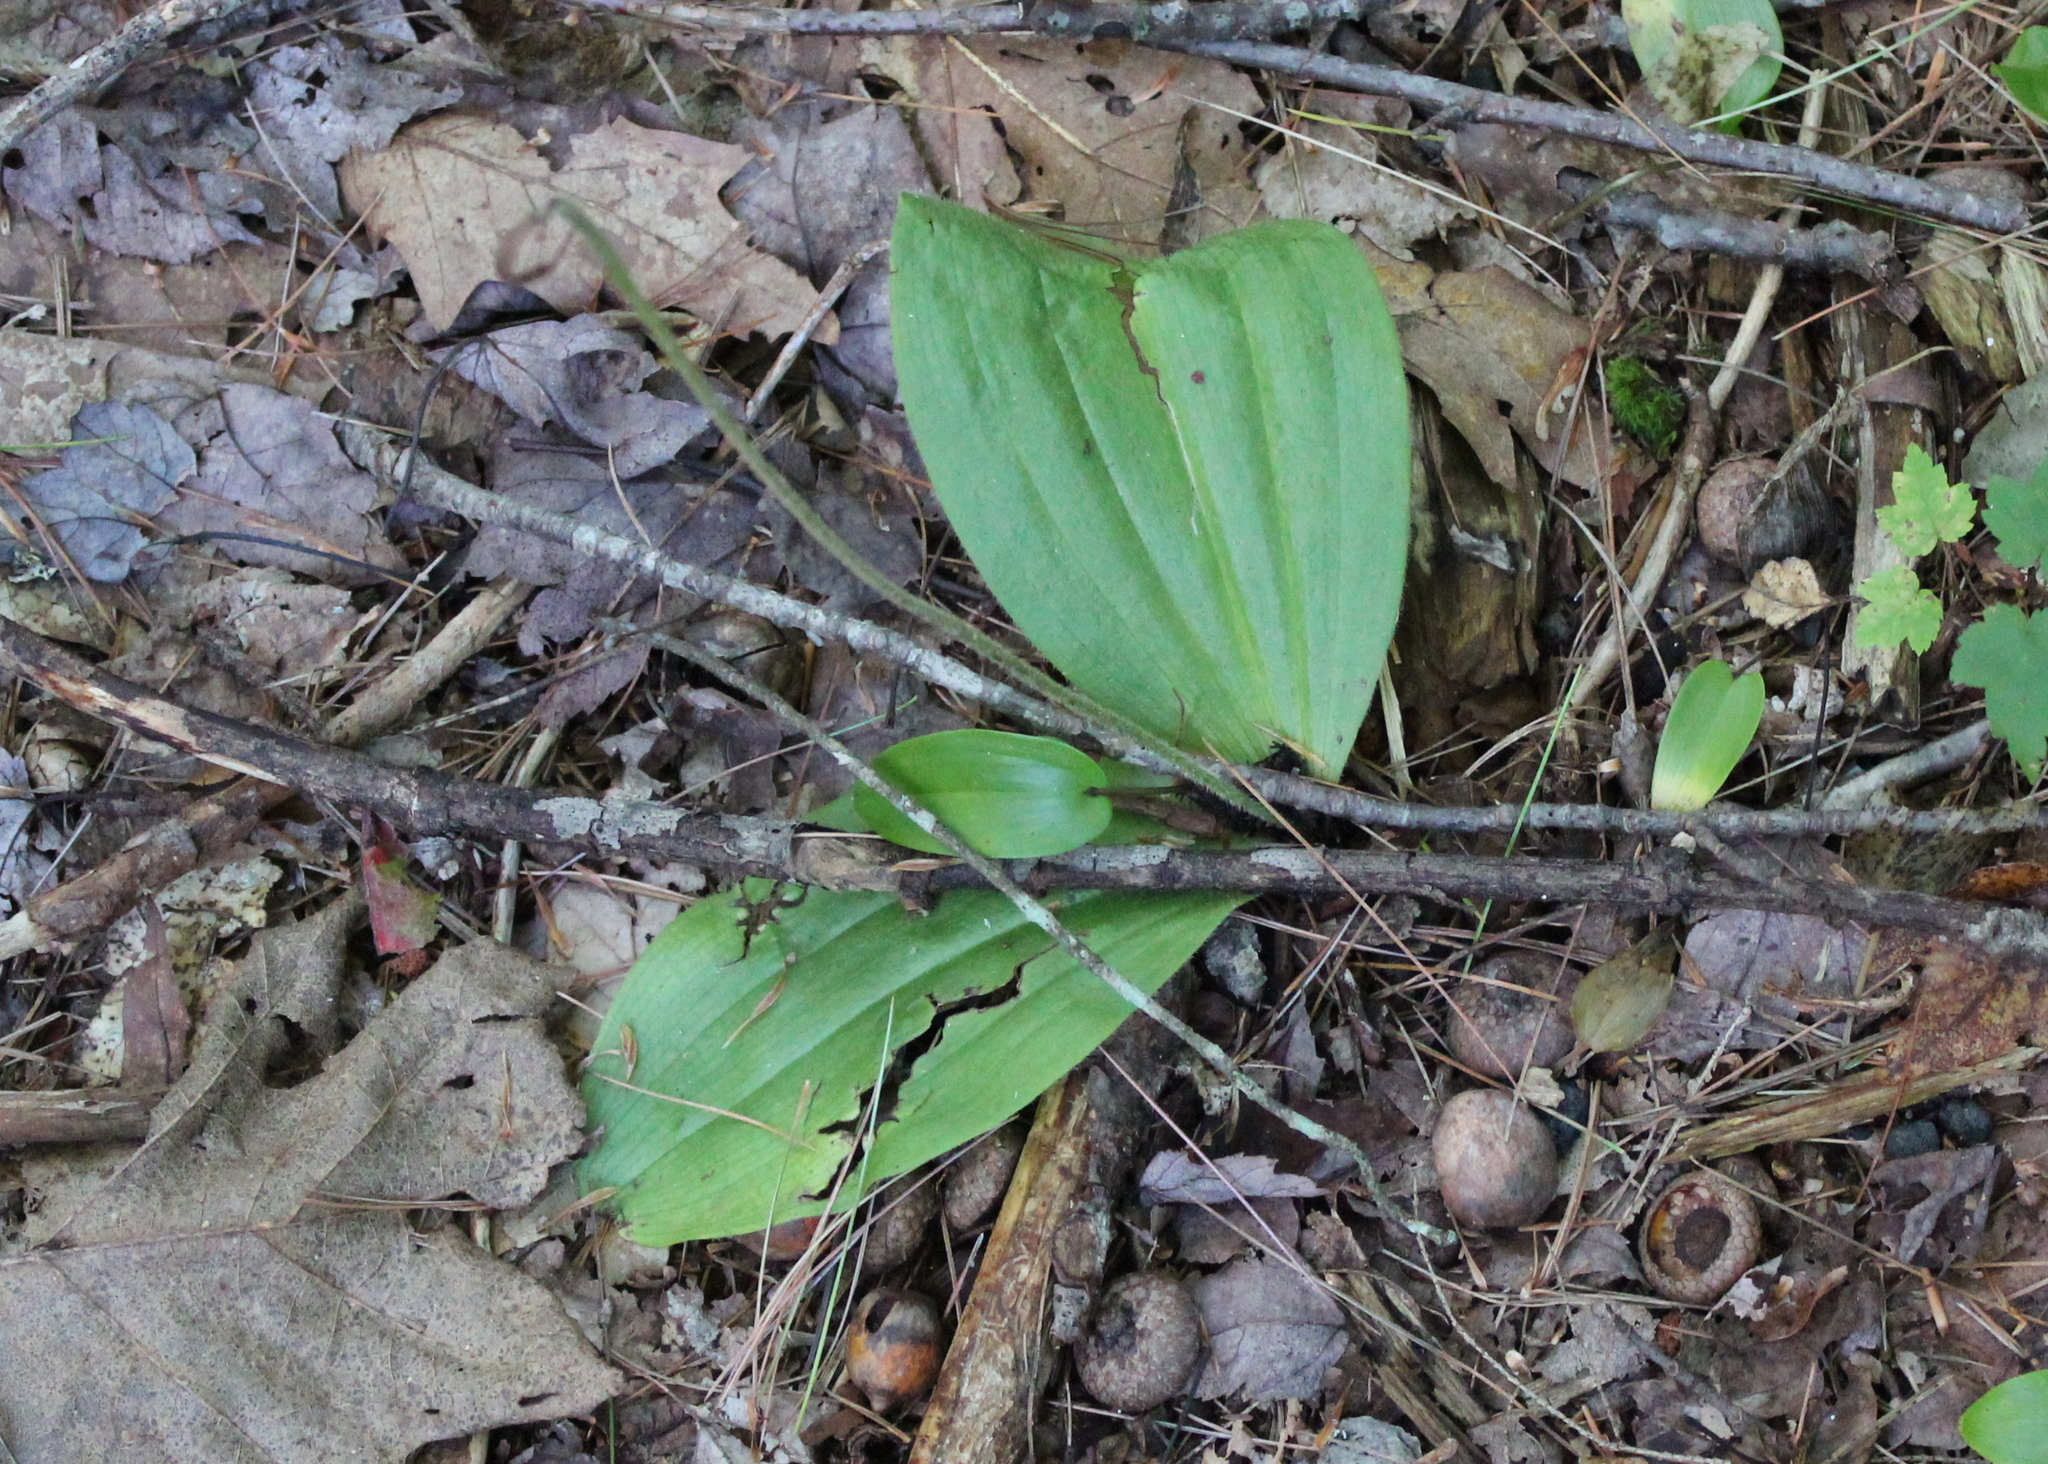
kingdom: Plantae
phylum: Tracheophyta
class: Liliopsida
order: Asparagales
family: Orchidaceae
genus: Cypripedium
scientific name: Cypripedium acaule
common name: Pink lady's-slipper
